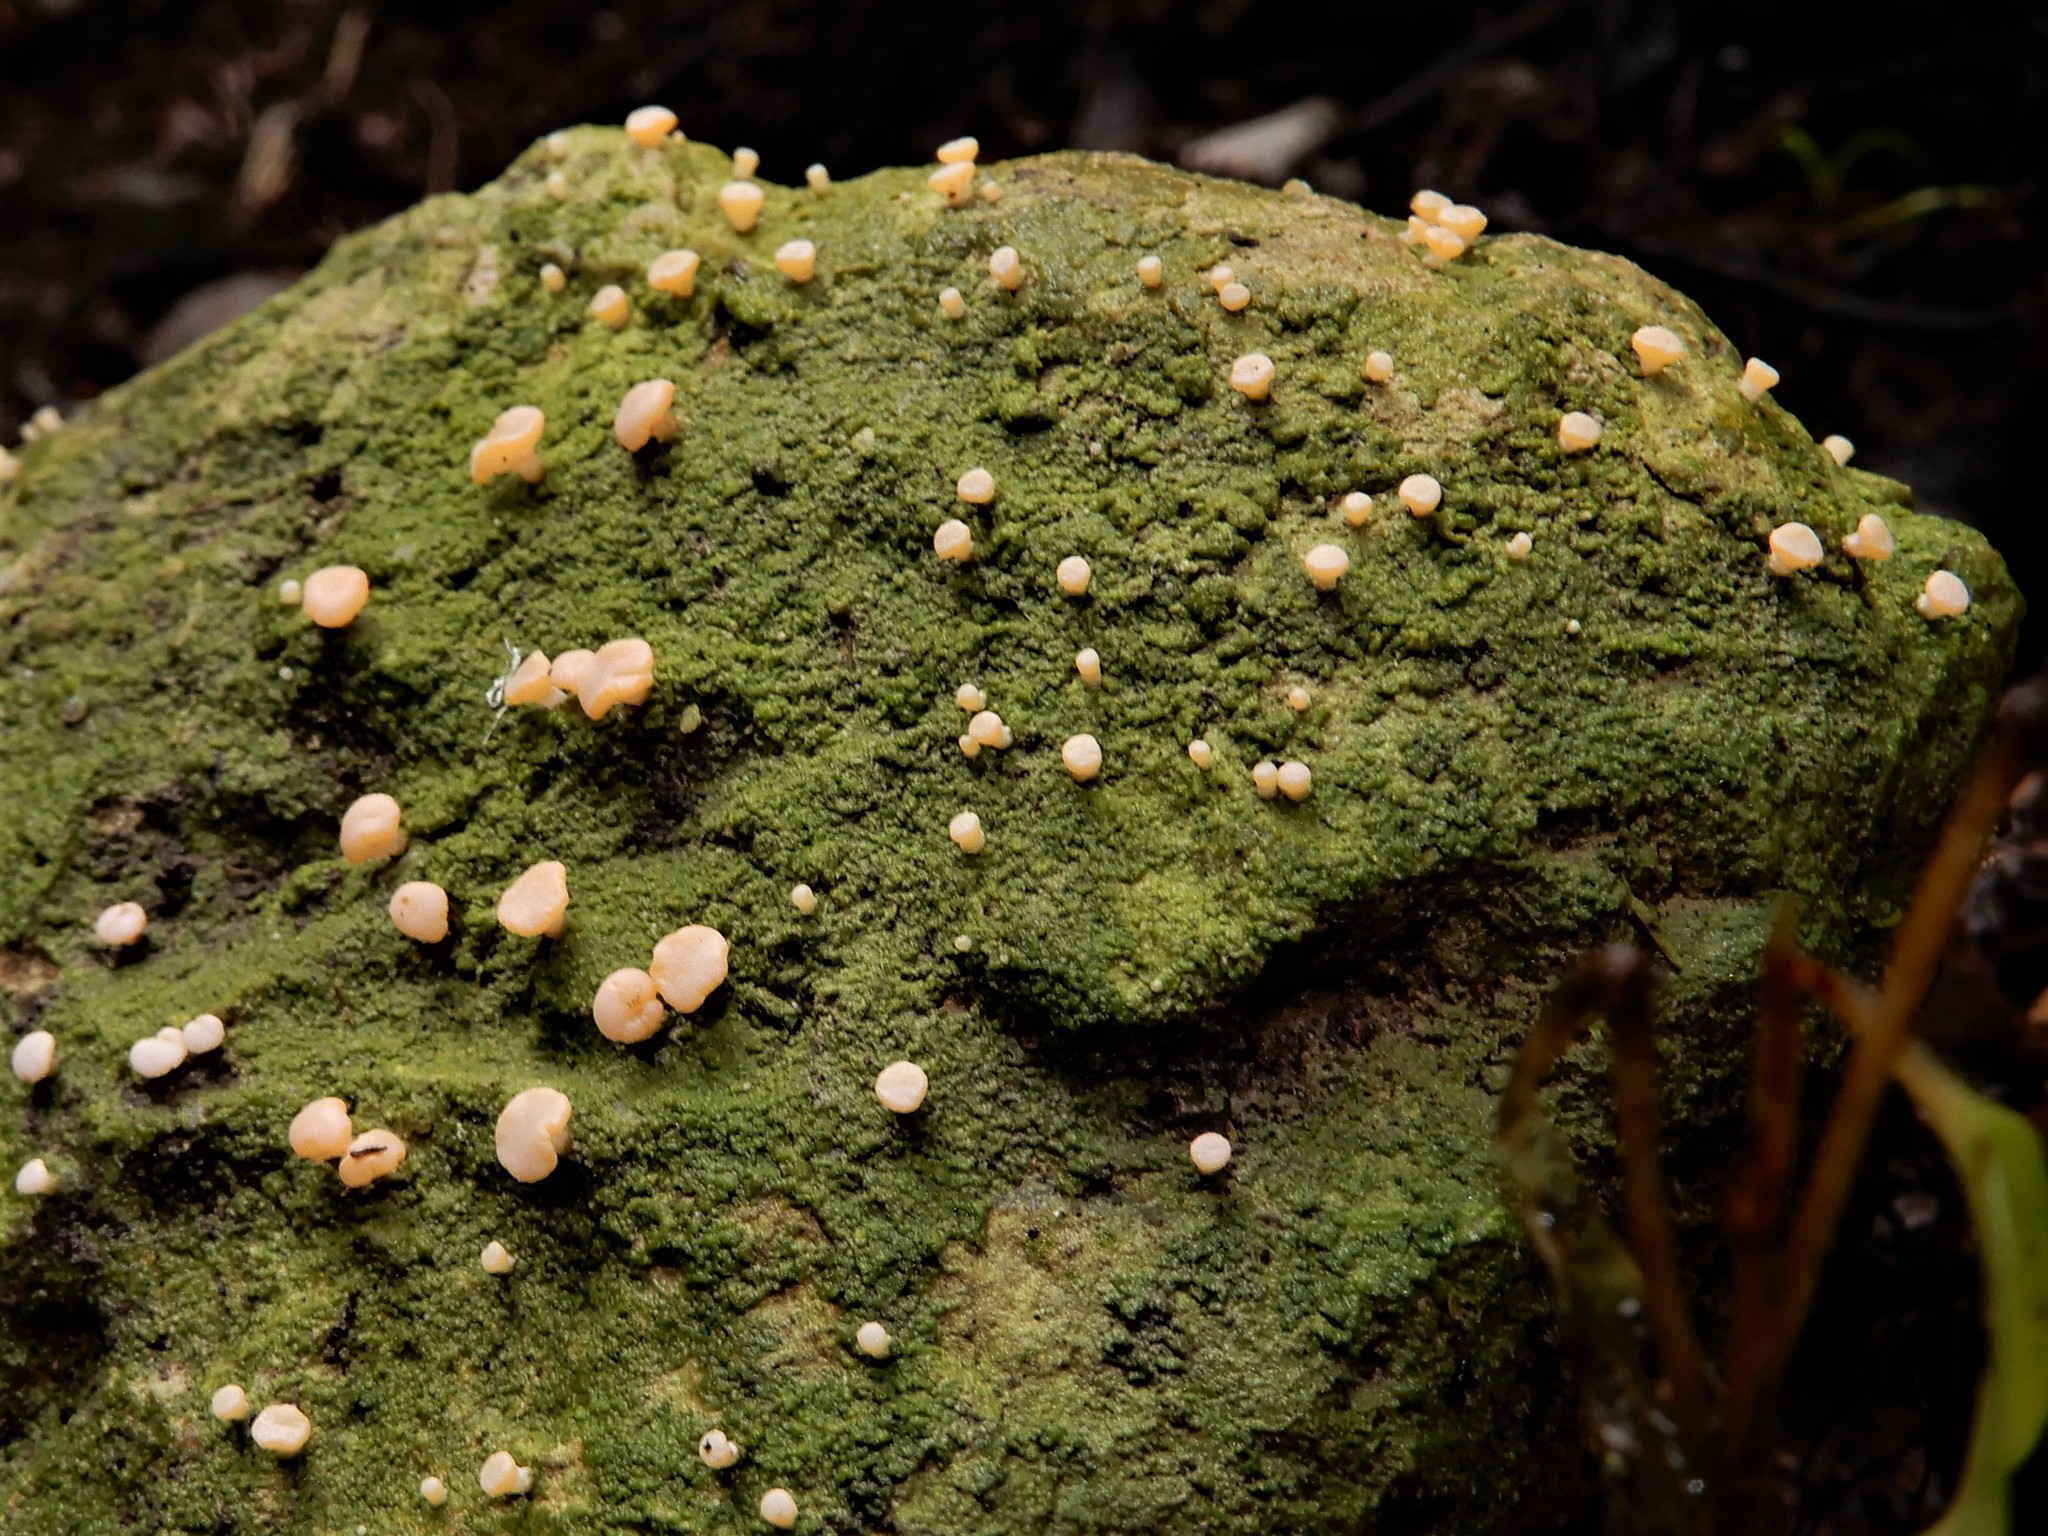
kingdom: Fungi
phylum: Ascomycota
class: Lecanoromycetes
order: Pertusariales
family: Icmadophilaceae
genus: Dibaeis
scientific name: Dibaeis absoluta
